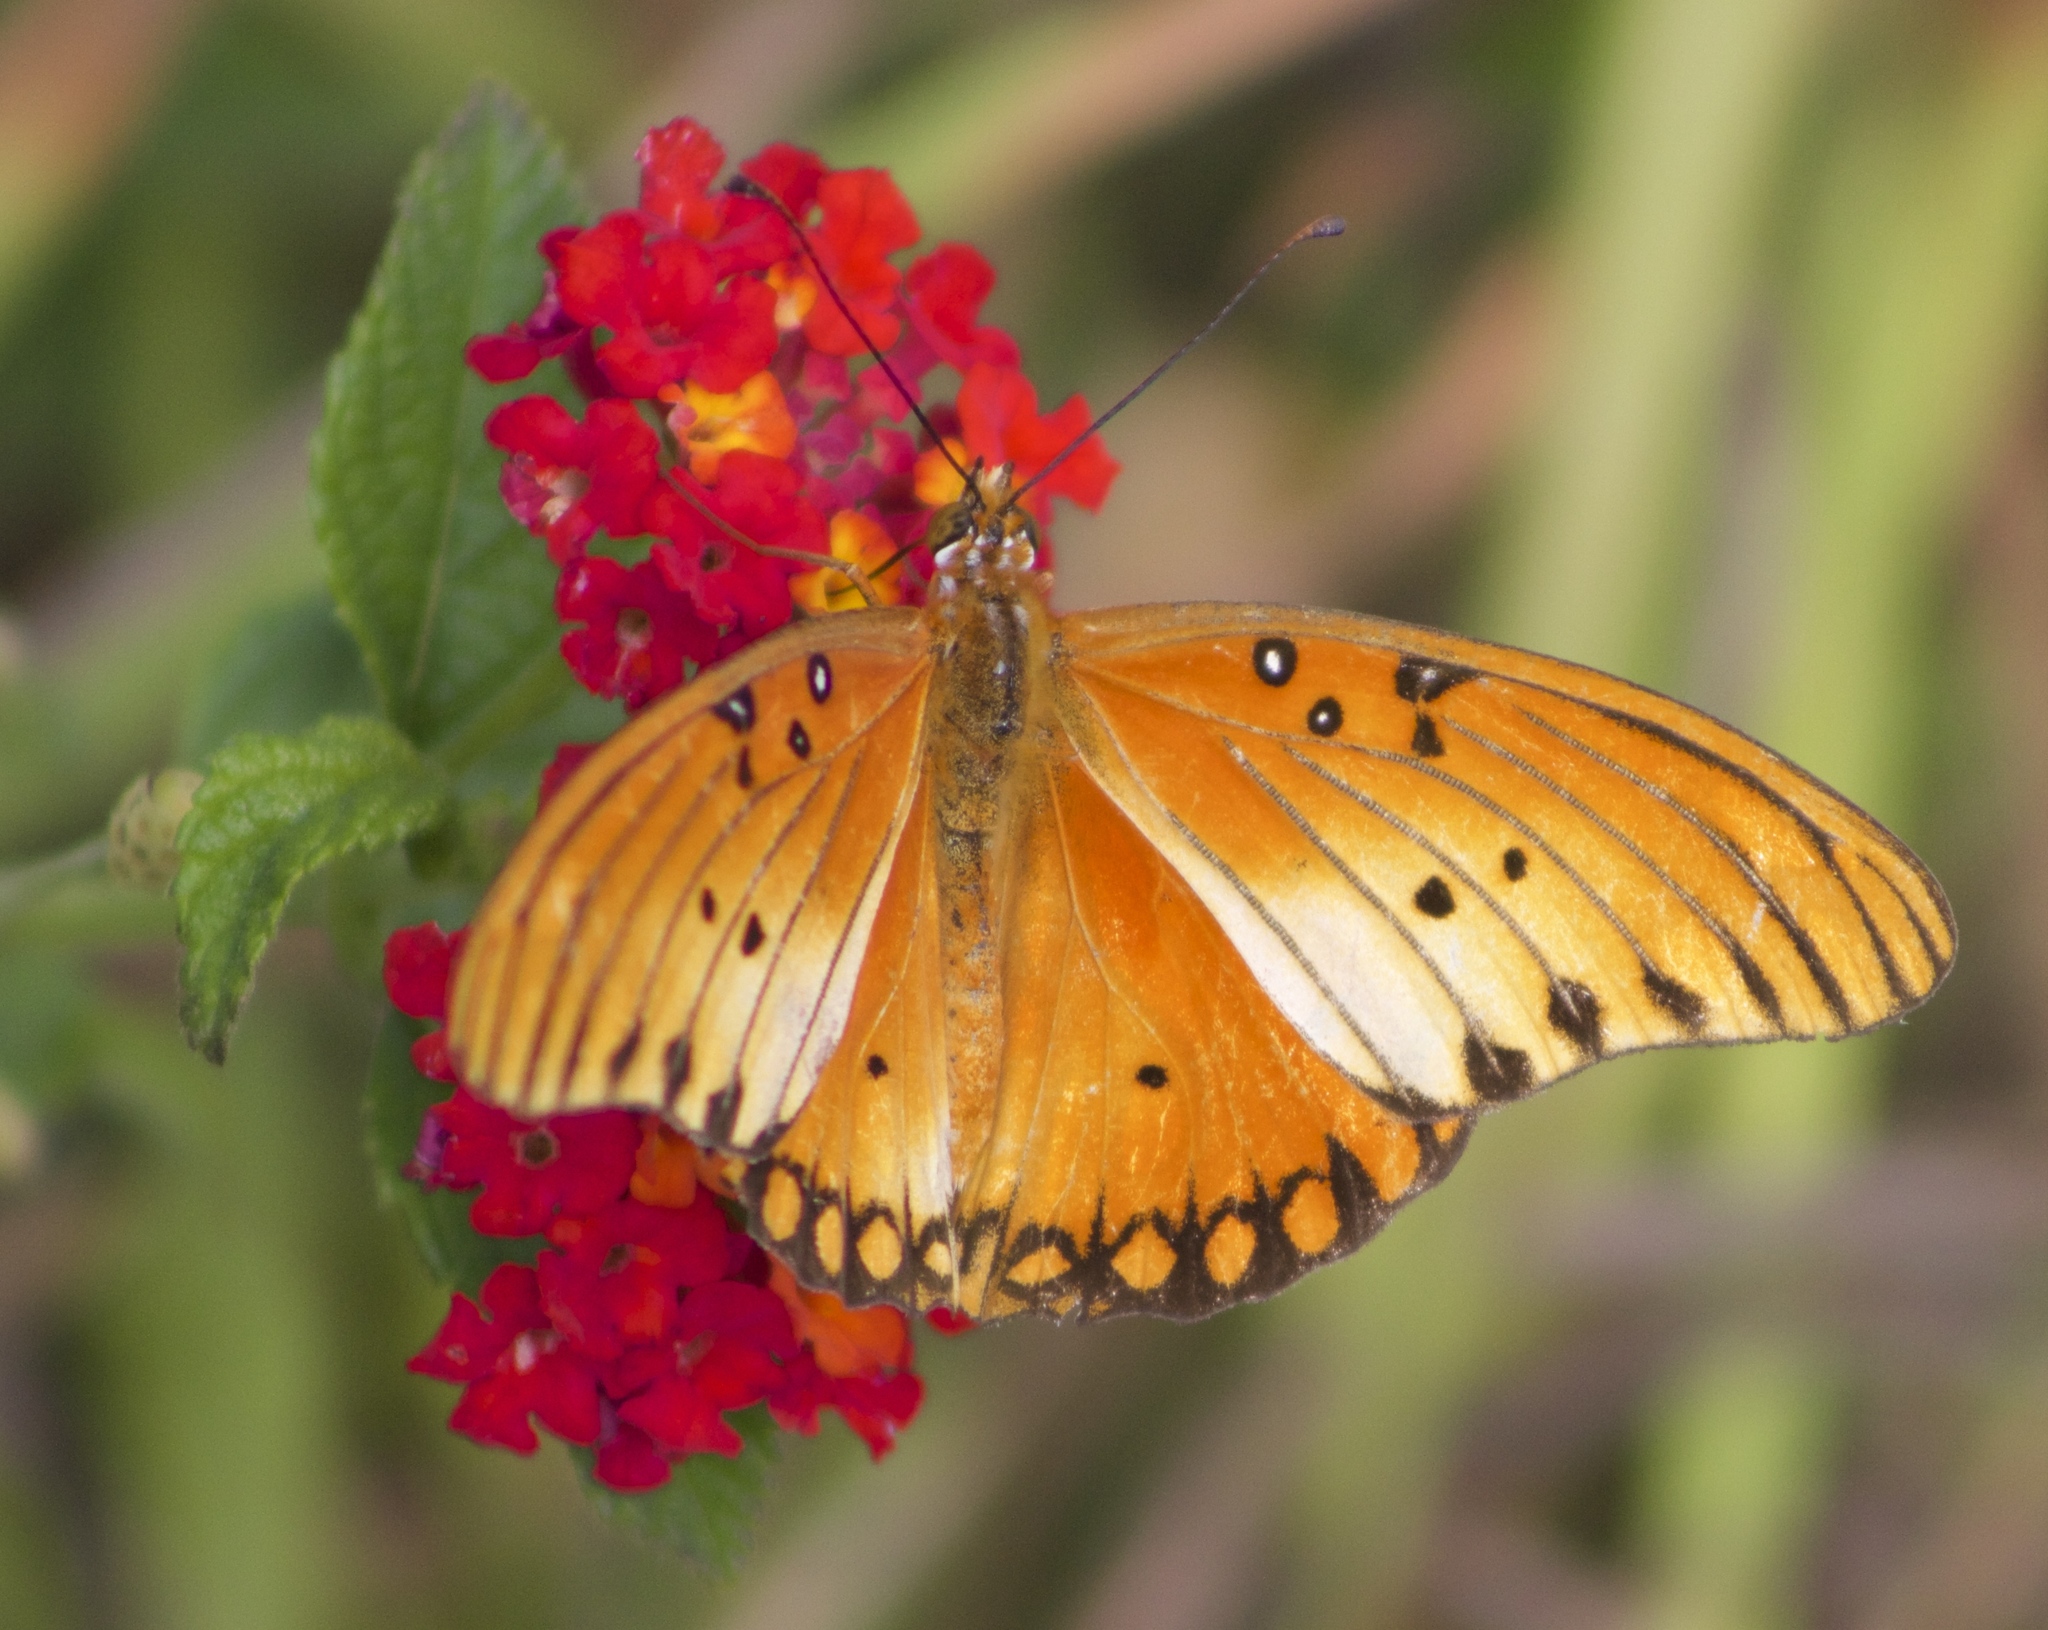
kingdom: Animalia
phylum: Arthropoda
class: Insecta
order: Lepidoptera
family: Nymphalidae
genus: Dione
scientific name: Dione vanillae
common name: Gulf fritillary
